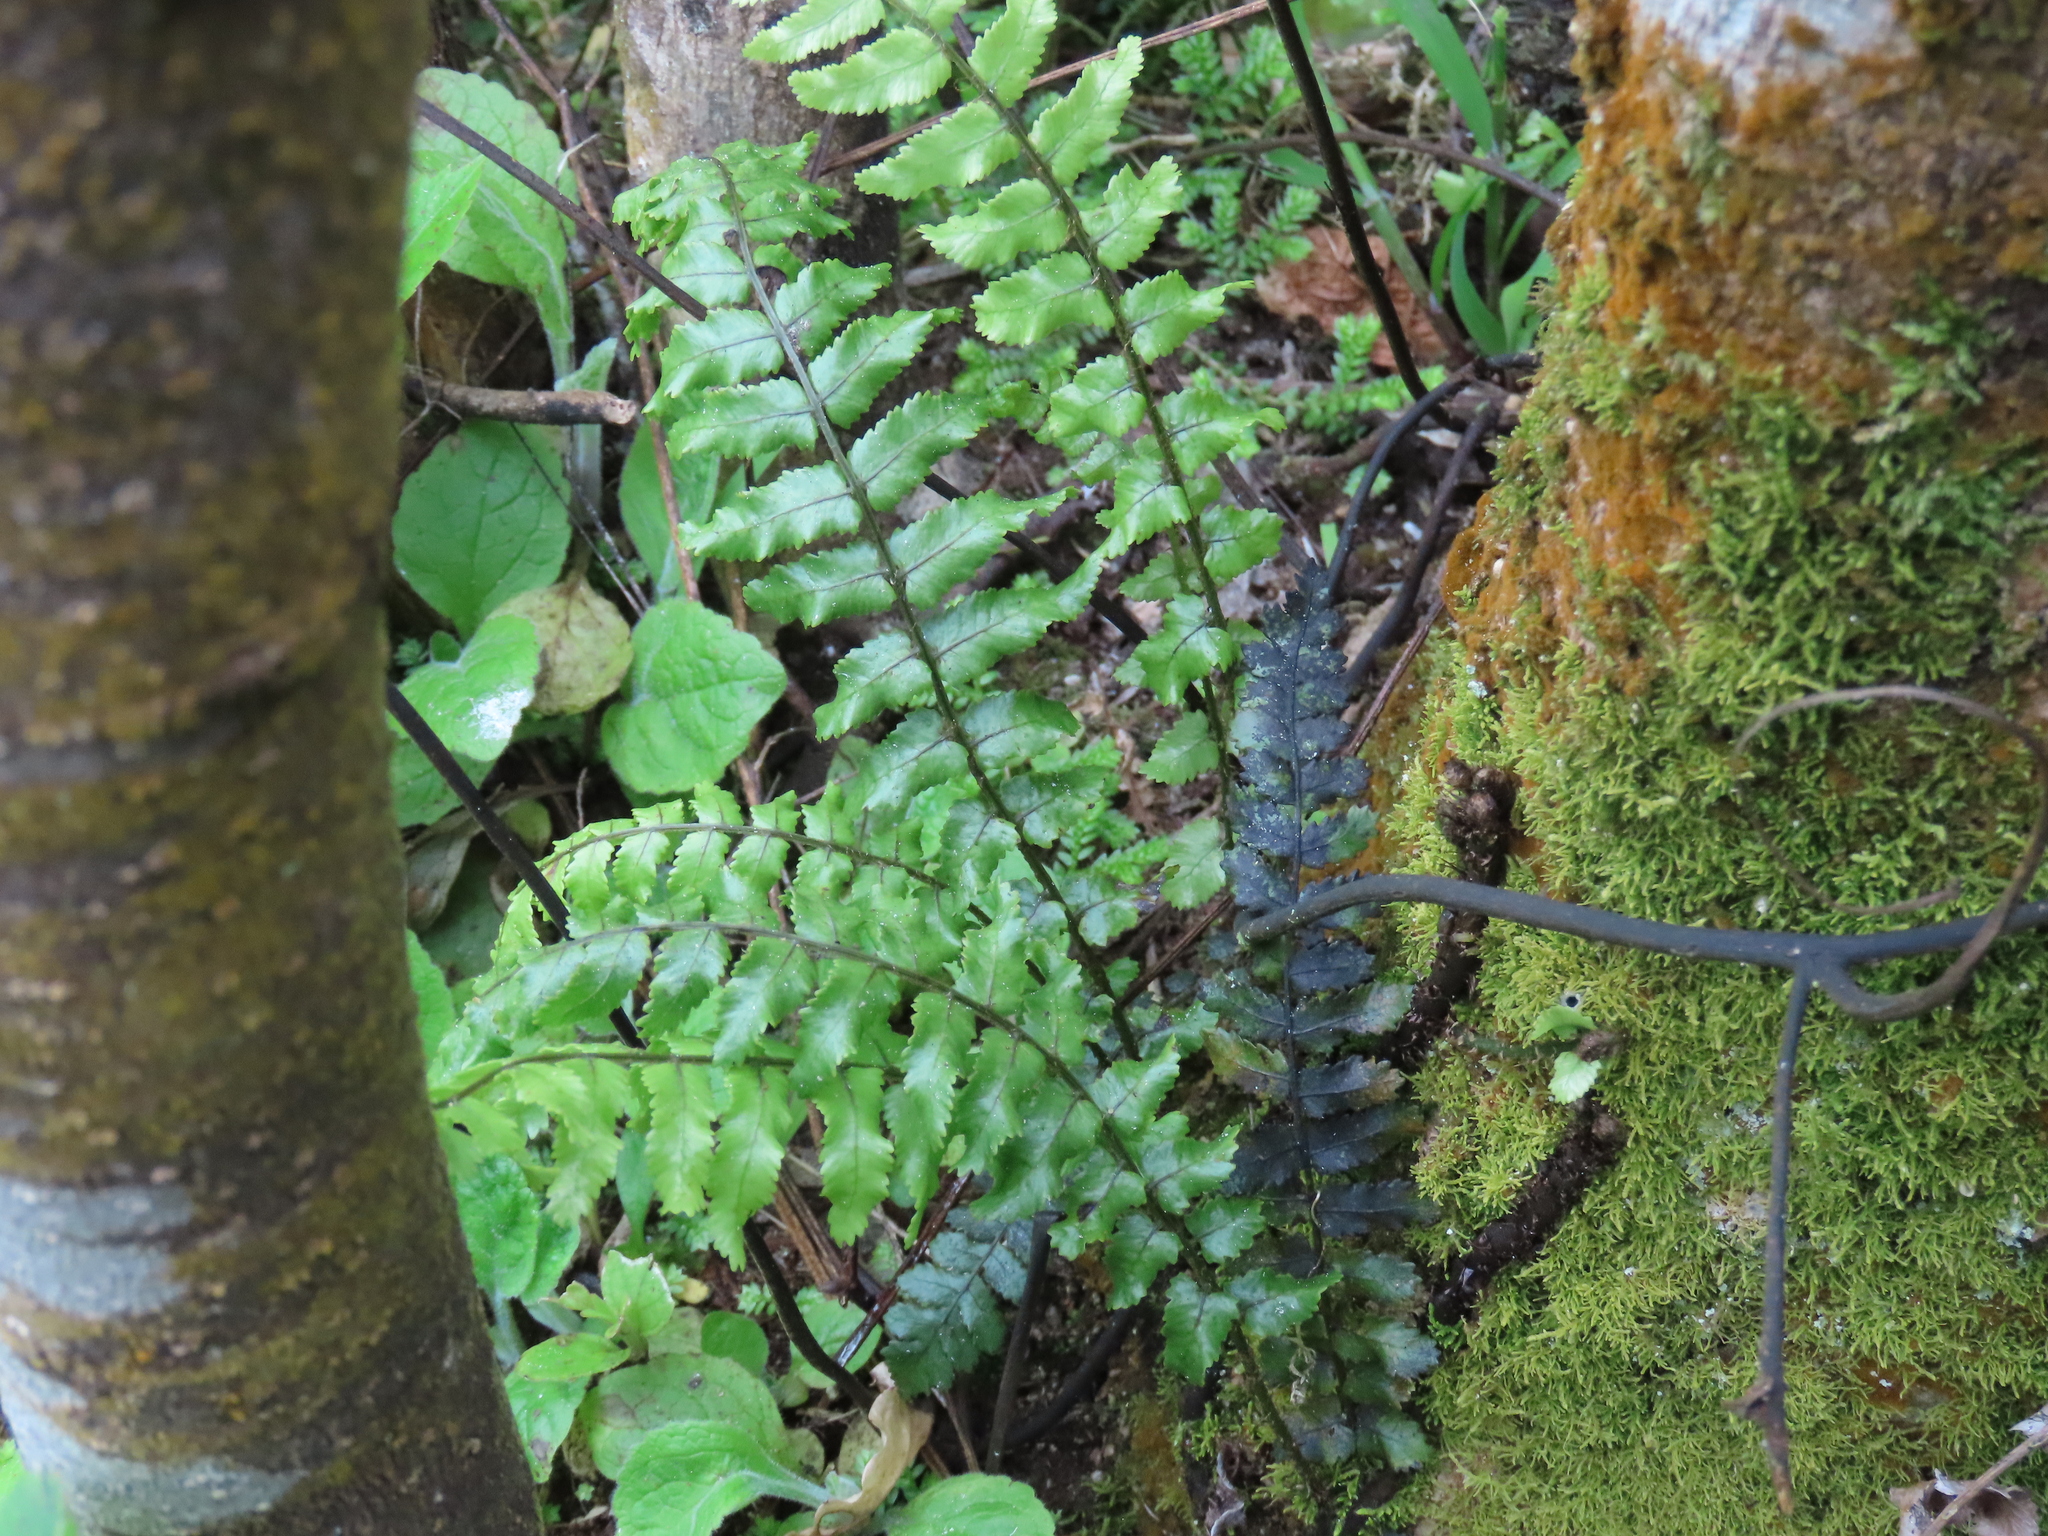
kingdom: Plantae
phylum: Tracheophyta
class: Polypodiopsida
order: Polypodiales
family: Blechnaceae
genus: Icarus
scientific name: Icarus filiformis
